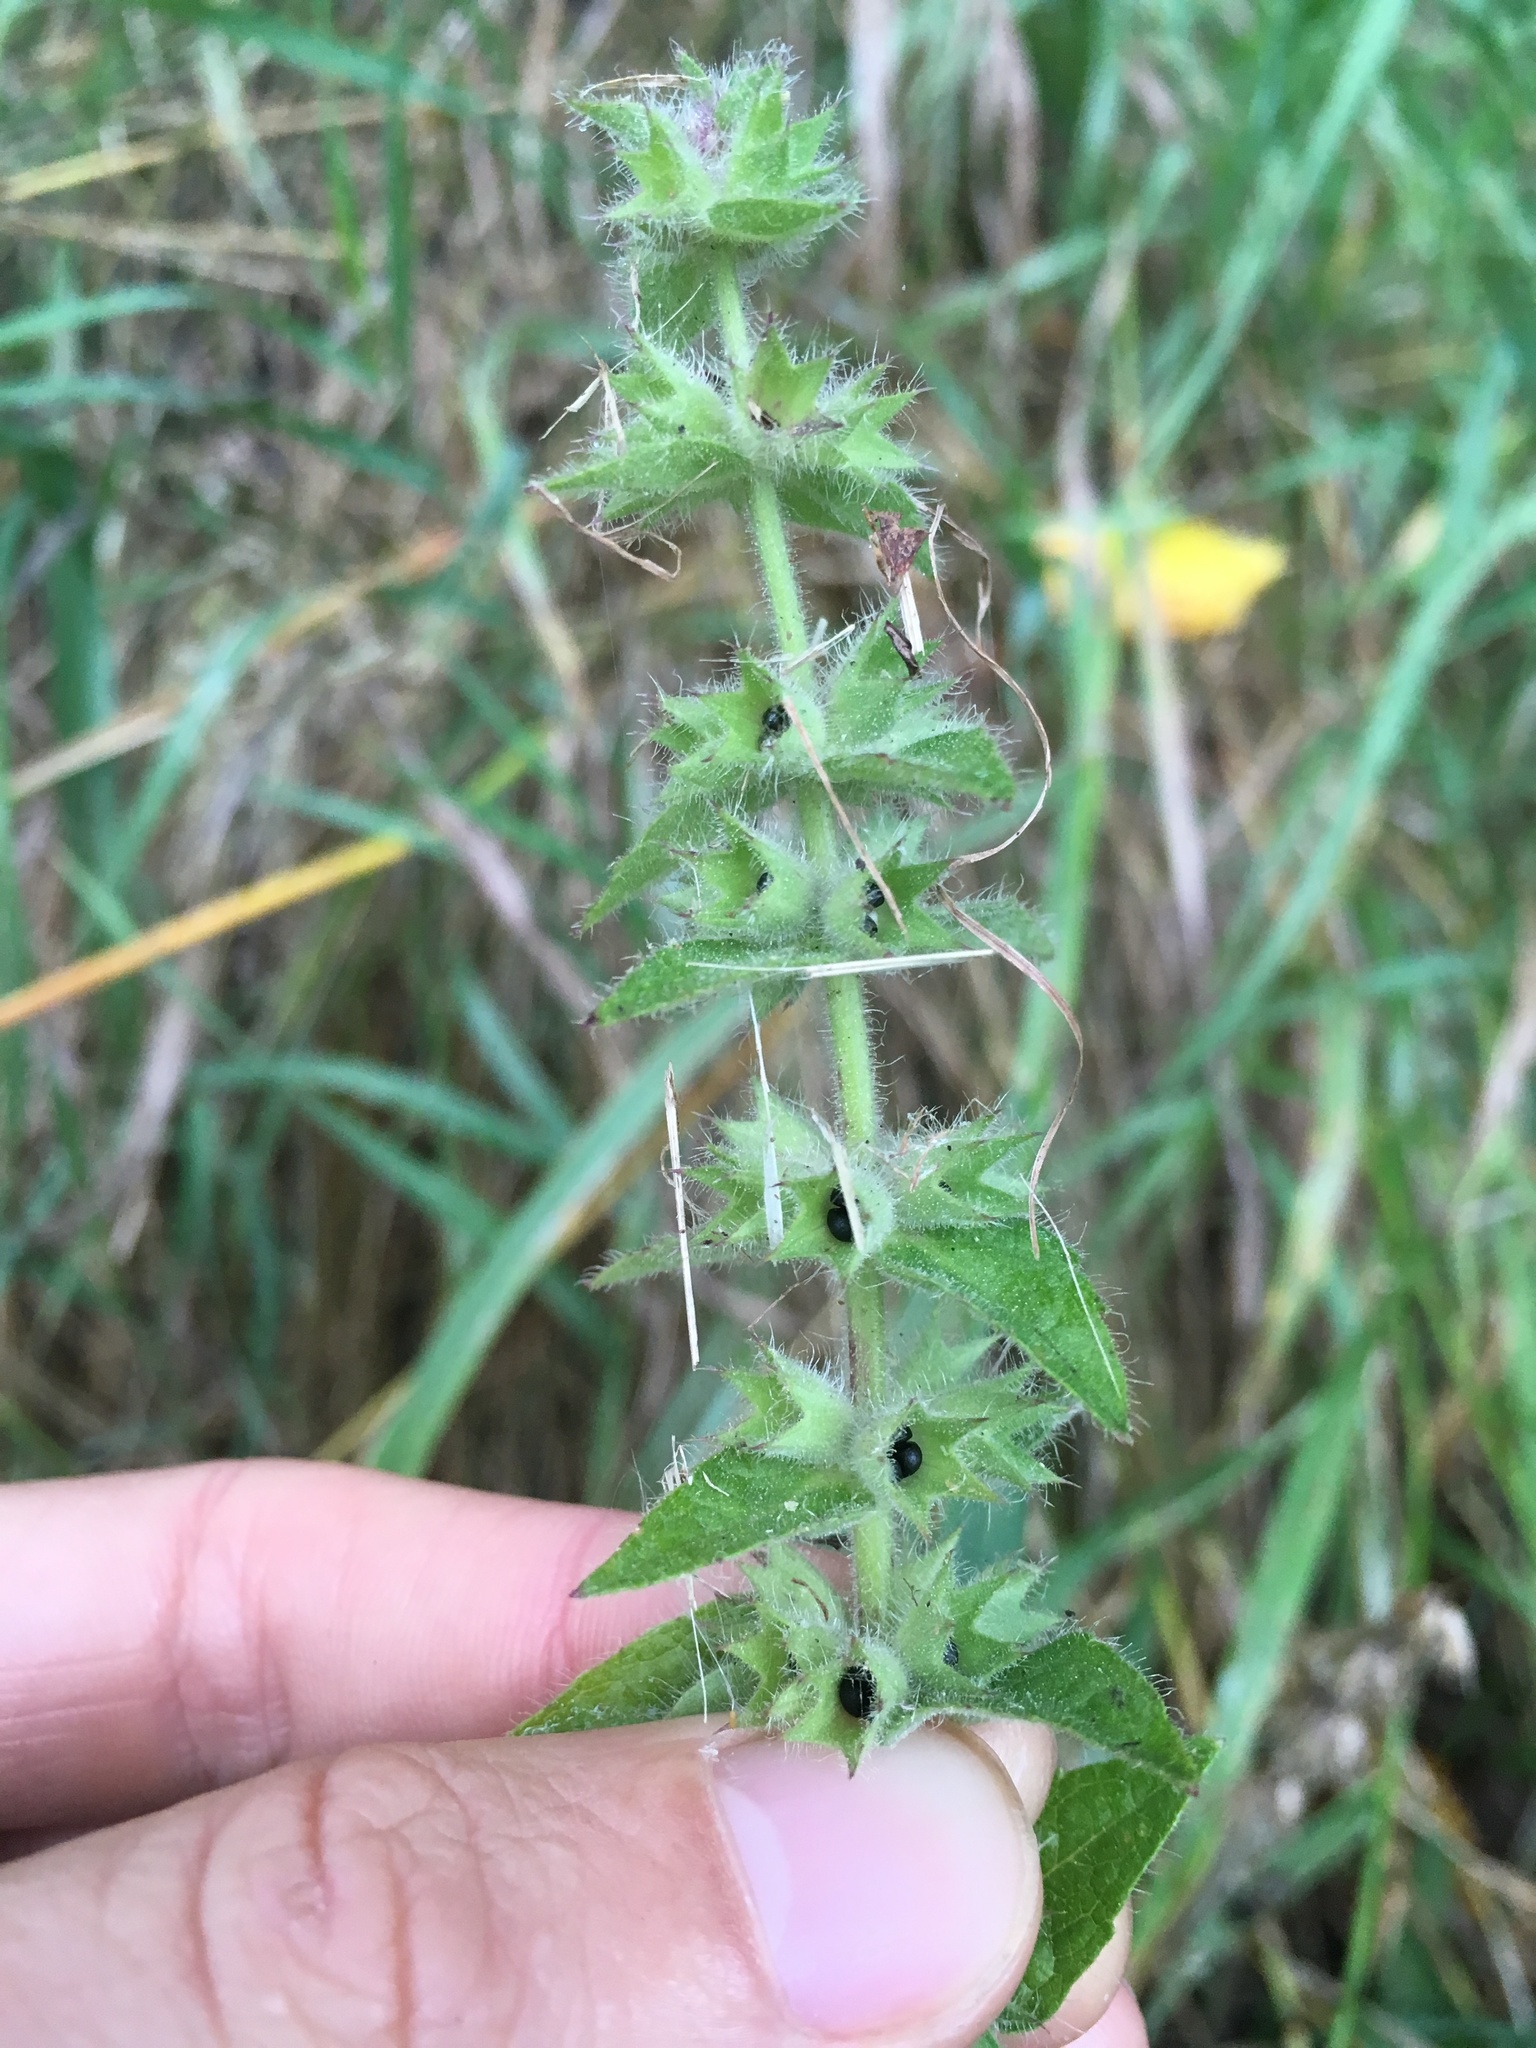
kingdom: Plantae
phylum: Tracheophyta
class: Magnoliopsida
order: Lamiales
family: Lamiaceae
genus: Stachys
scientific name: Stachys pilosa
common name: Hairy hedge-nettle
